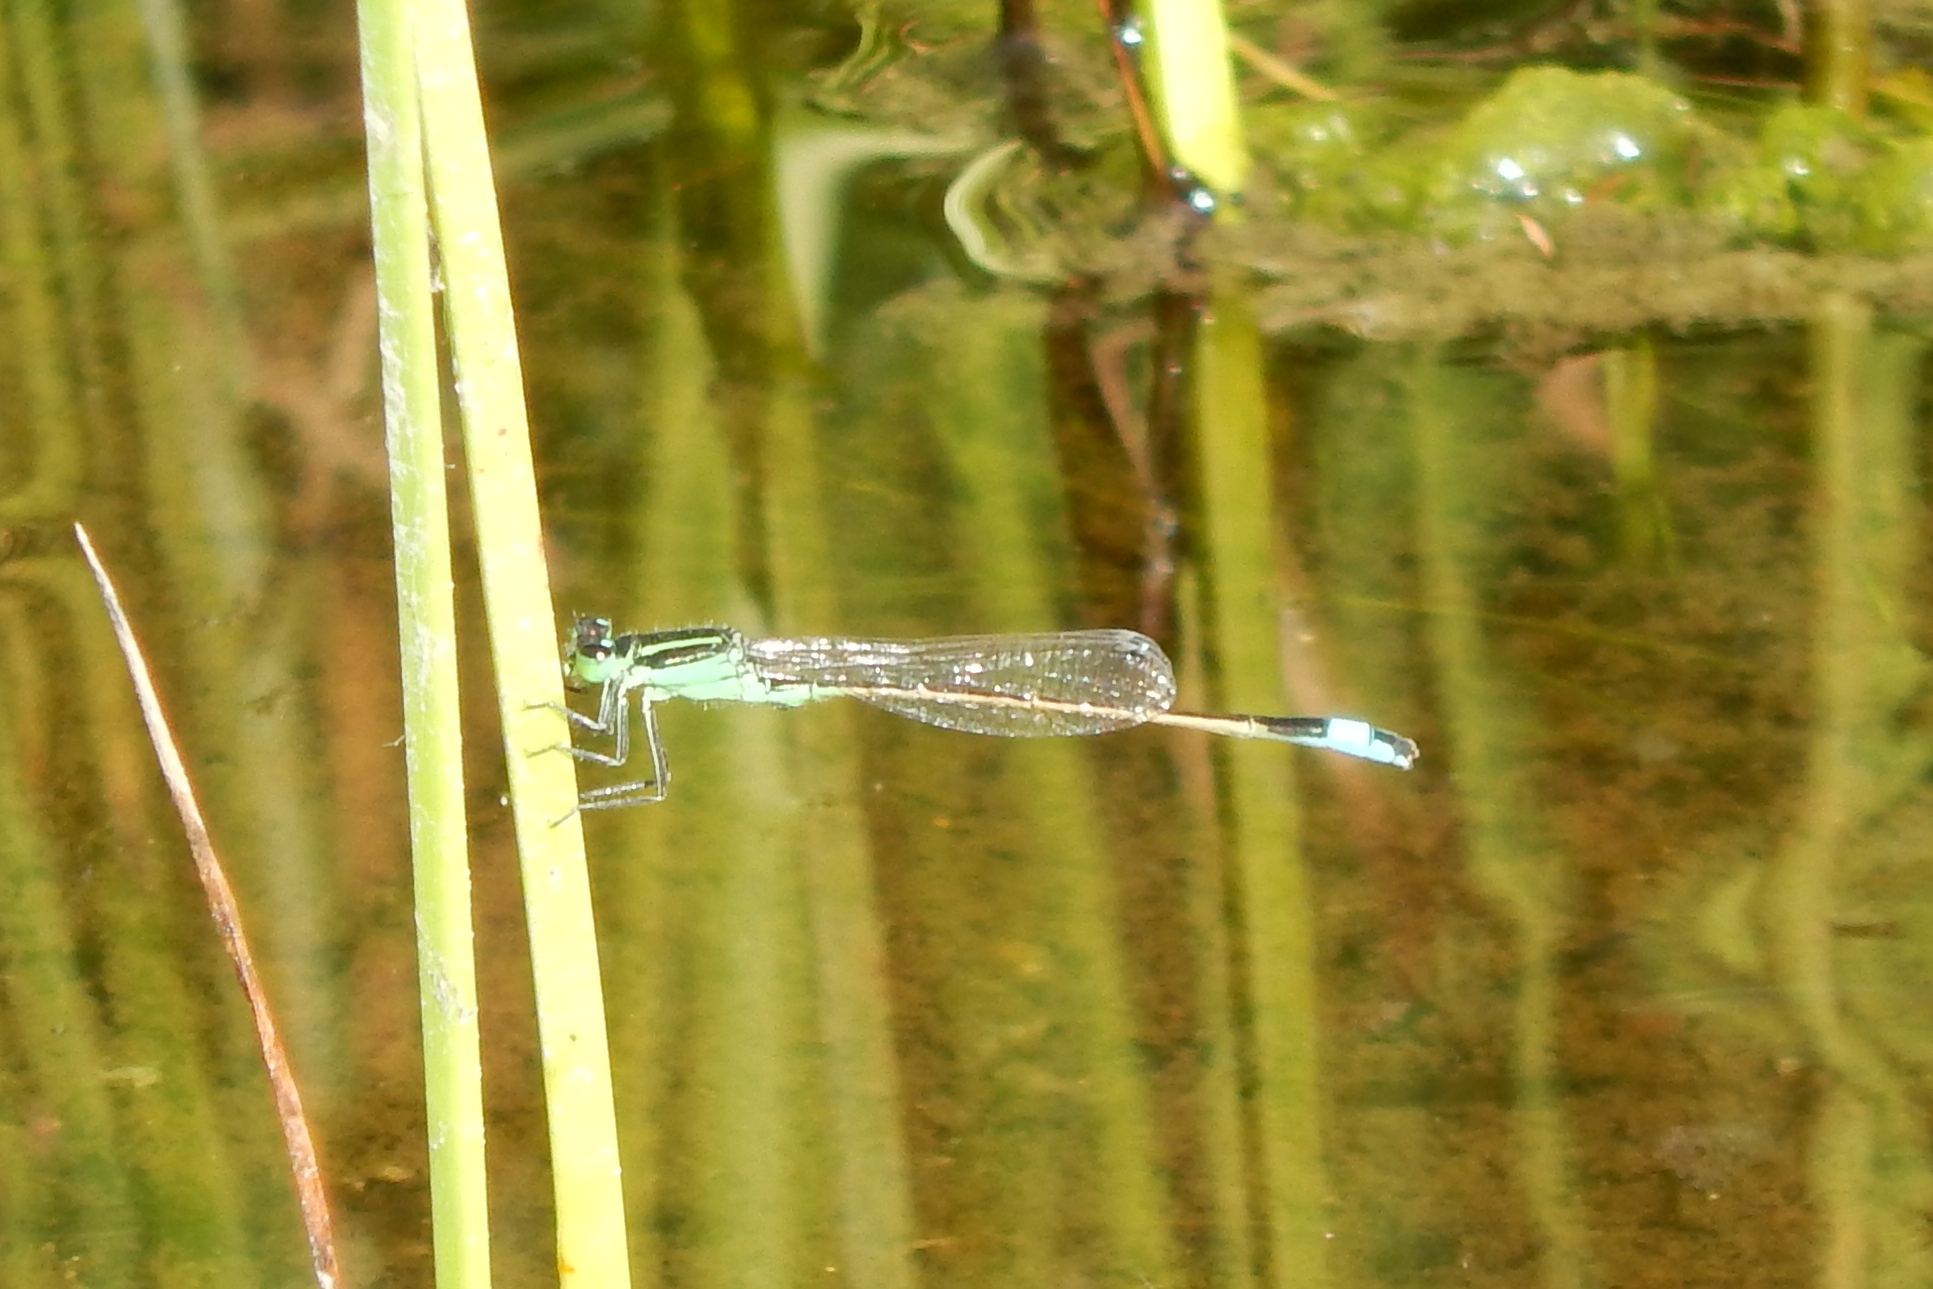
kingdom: Animalia
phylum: Arthropoda
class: Insecta
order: Odonata
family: Coenagrionidae
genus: Ischnura
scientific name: Ischnura ramburii
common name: Rambur's forktail
